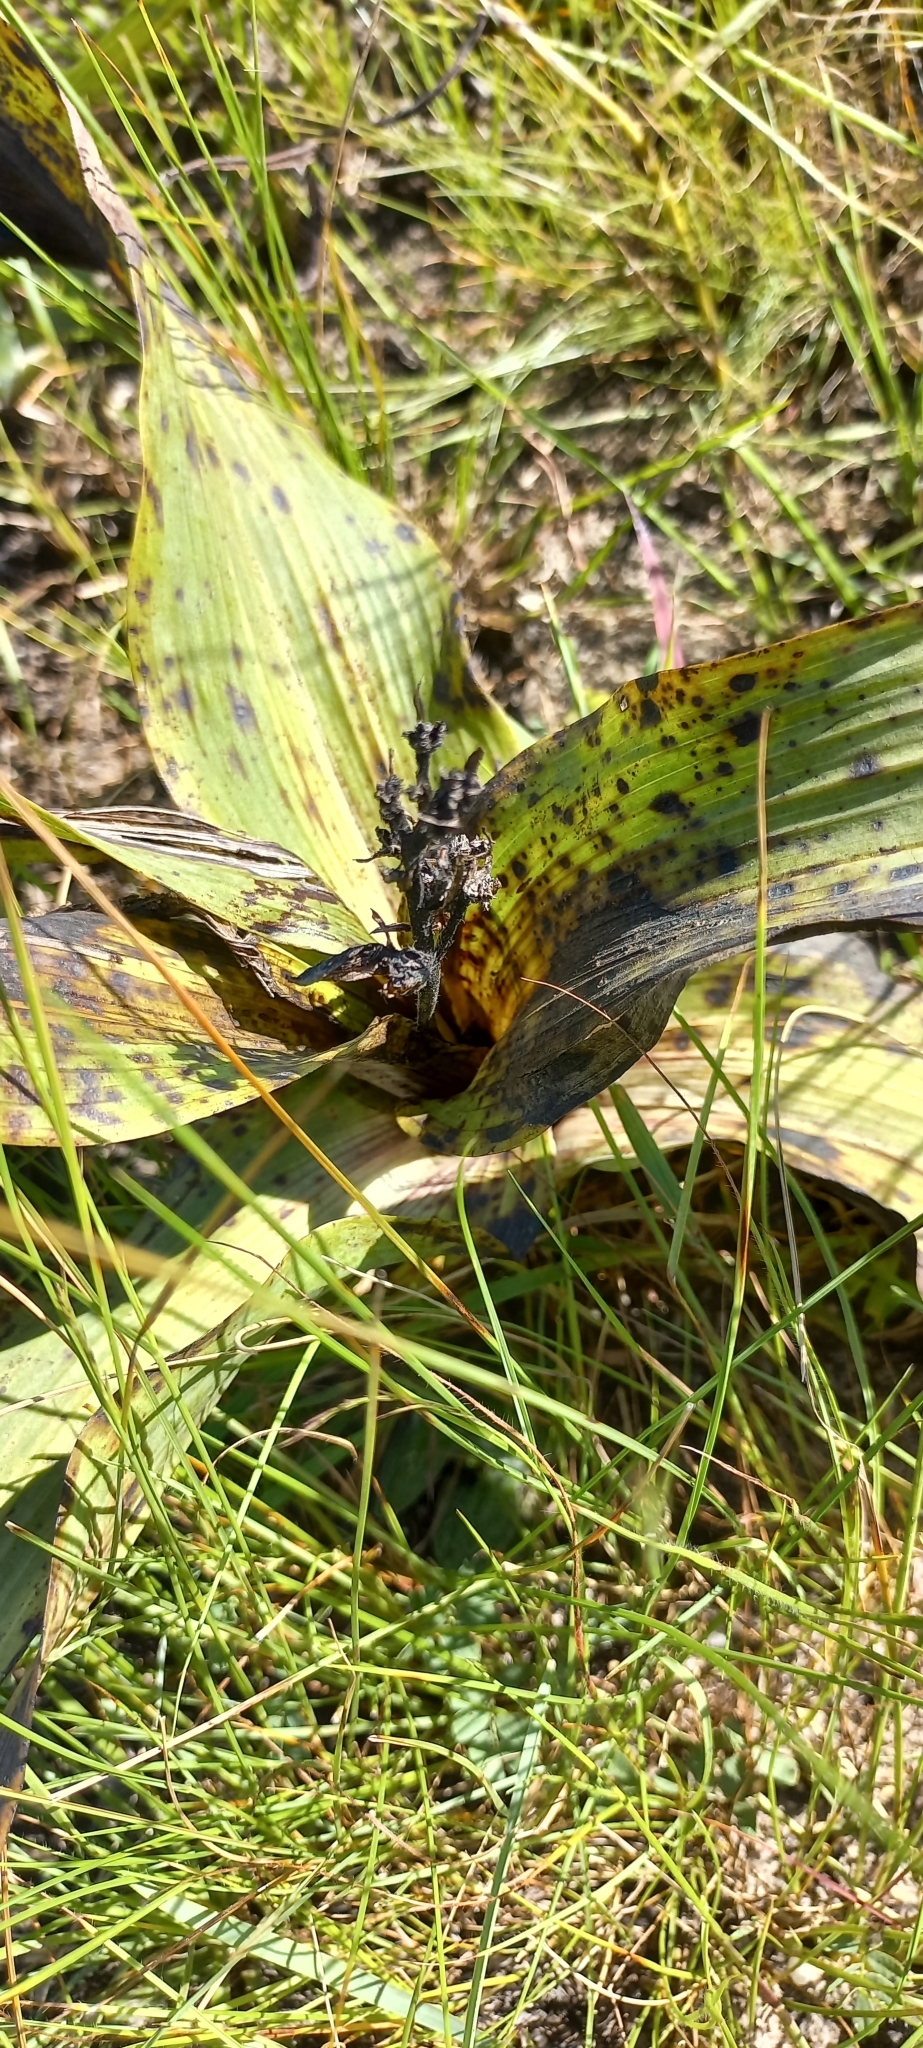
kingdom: Plantae
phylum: Tracheophyta
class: Liliopsida
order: Asparagales
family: Hypoxidaceae
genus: Hypoxis
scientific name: Hypoxis colchicifolia
